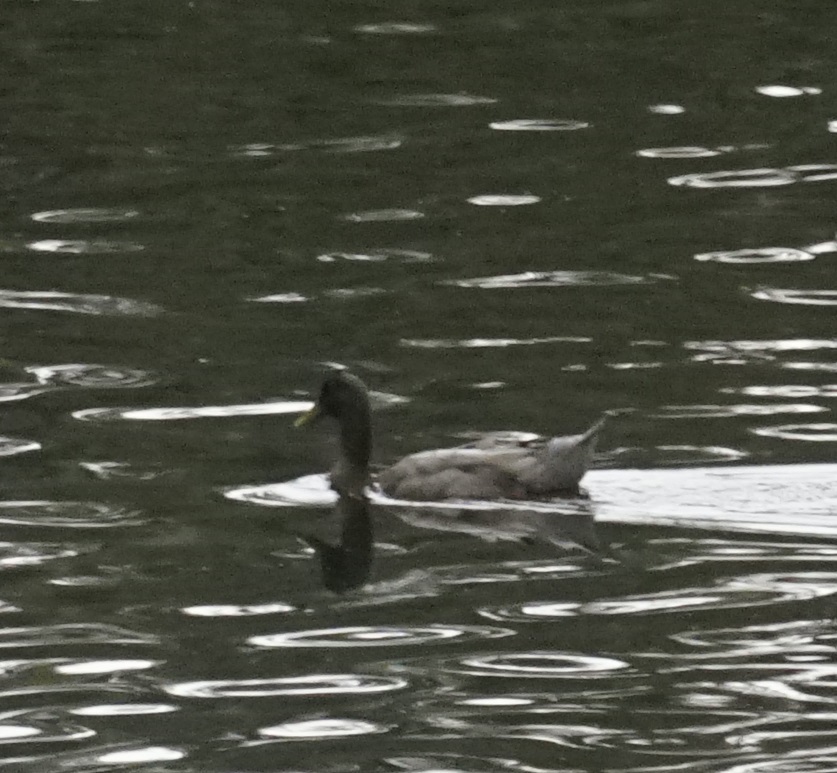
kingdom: Animalia
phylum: Chordata
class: Aves
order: Anseriformes
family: Anatidae
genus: Anas
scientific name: Anas platyrhynchos
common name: Mallard
